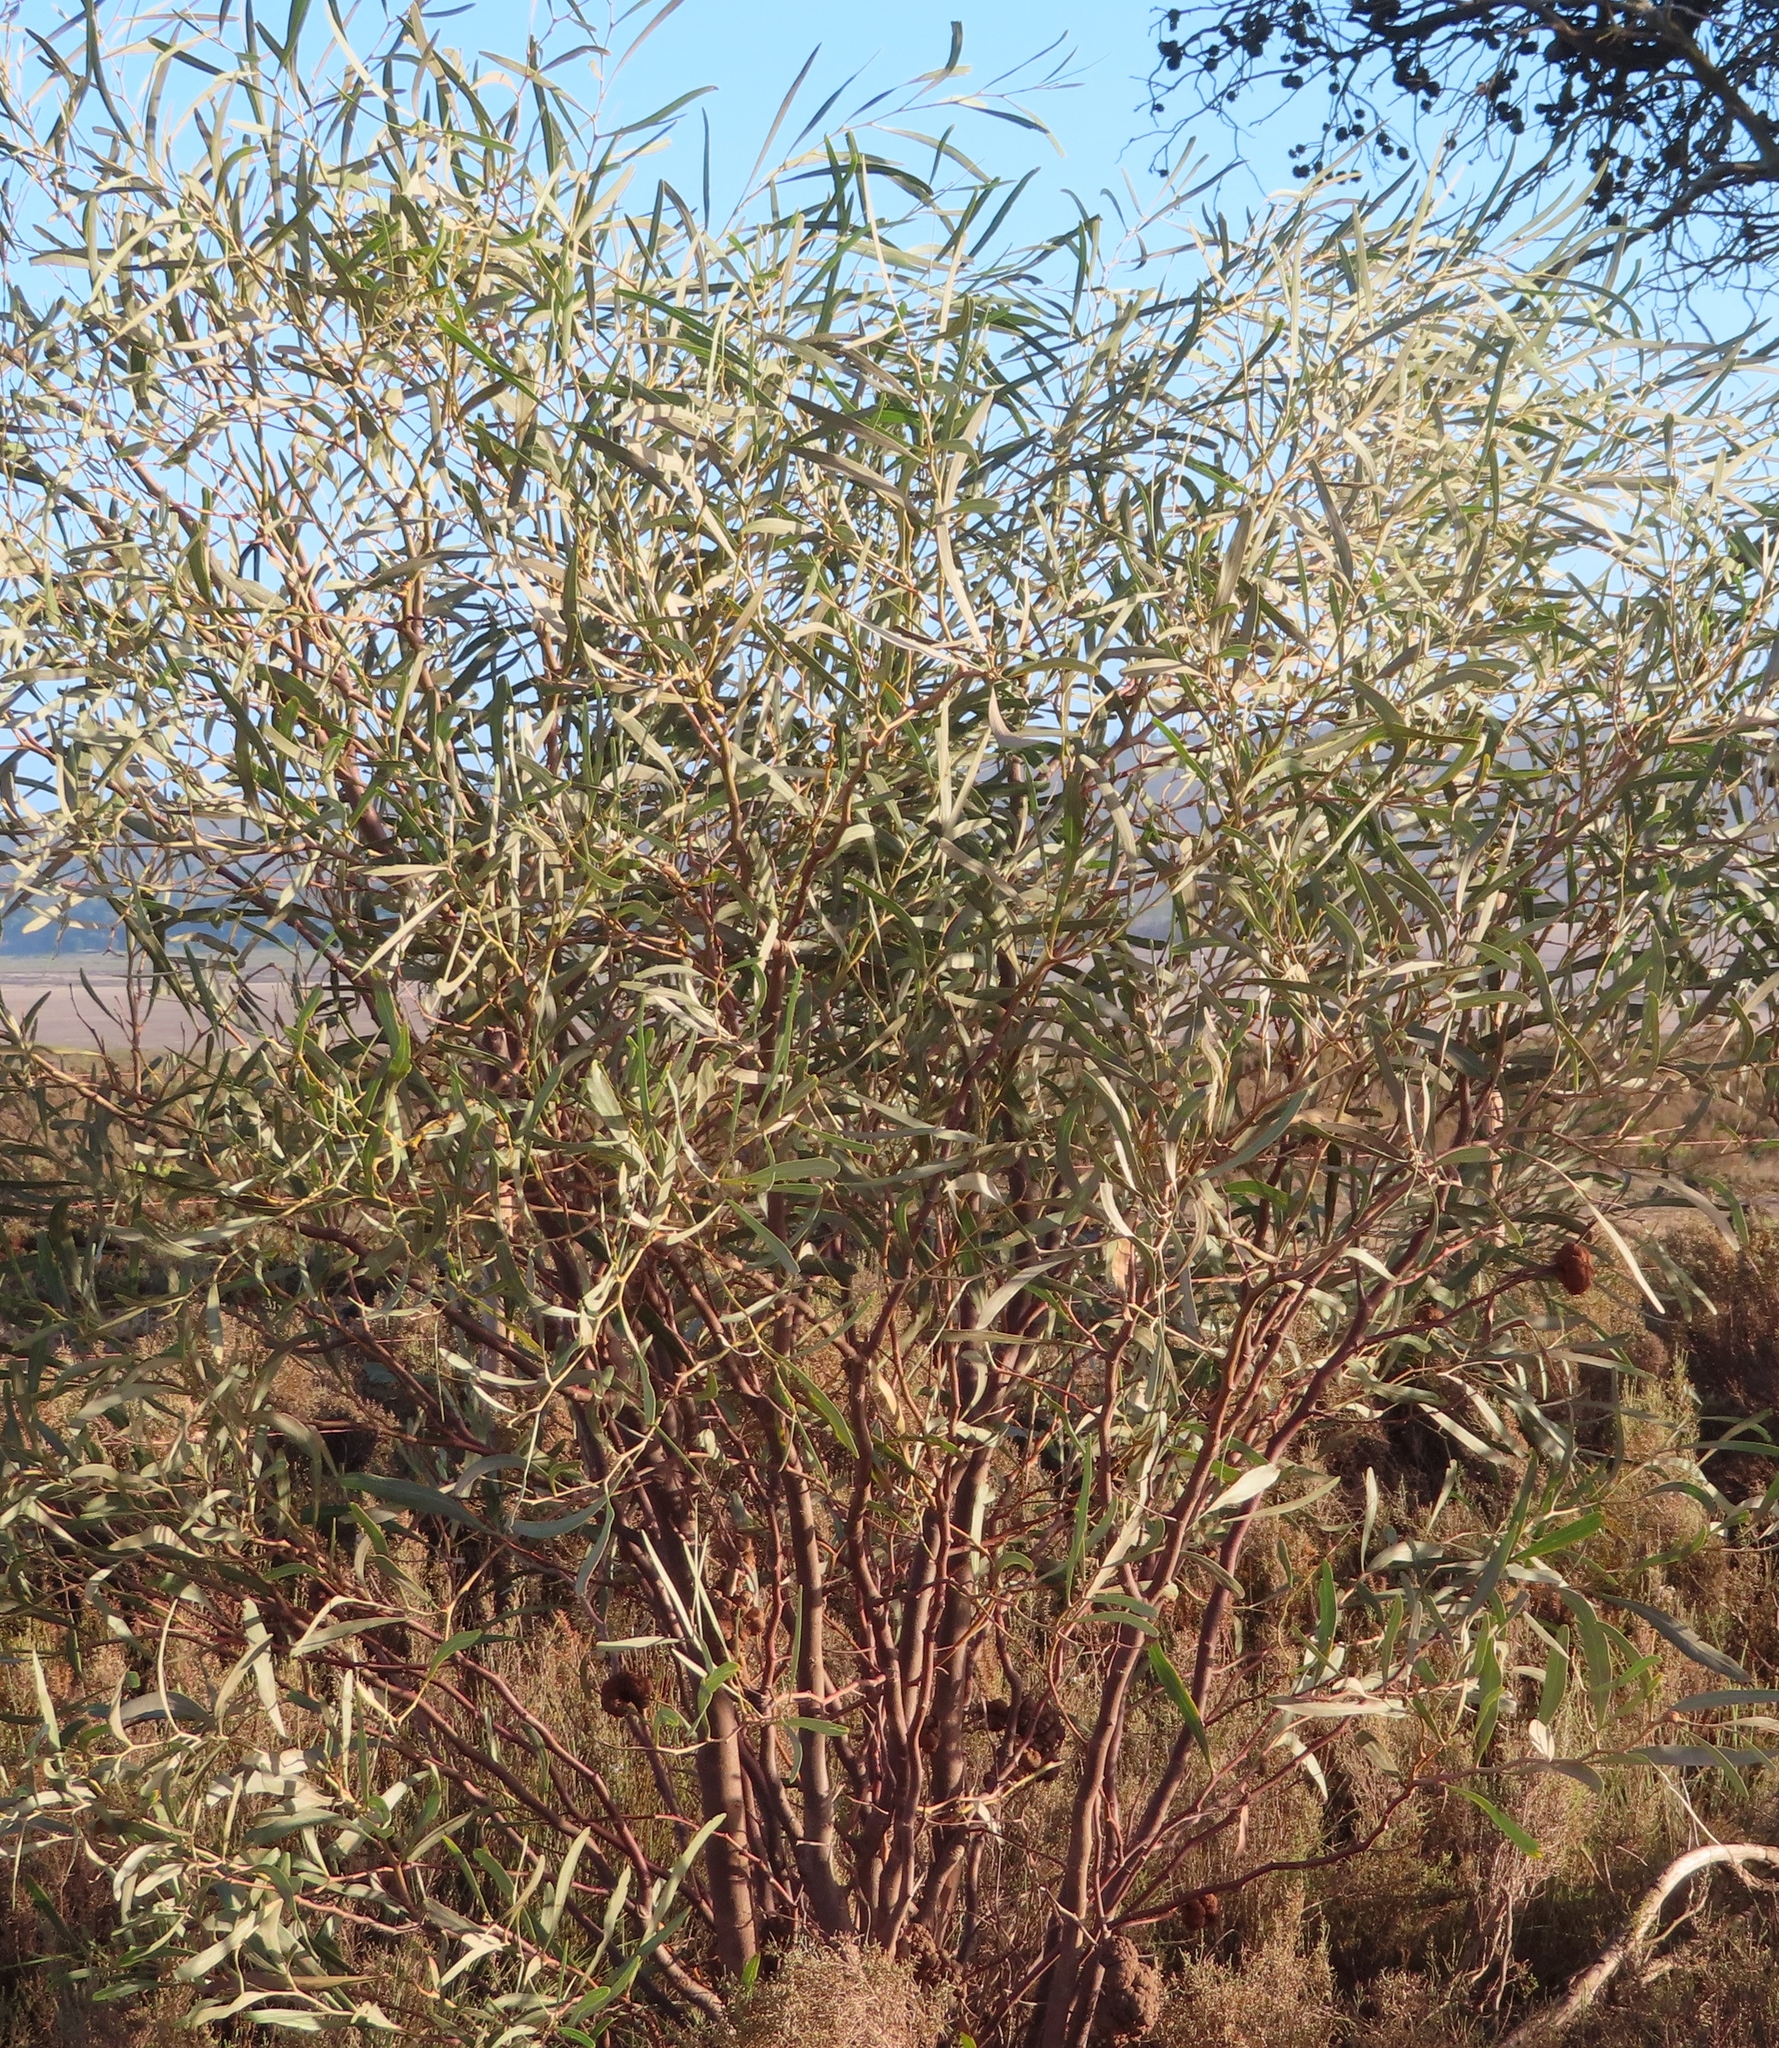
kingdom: Plantae
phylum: Tracheophyta
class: Magnoliopsida
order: Fabales
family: Fabaceae
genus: Acacia
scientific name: Acacia saligna
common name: Orange wattle
